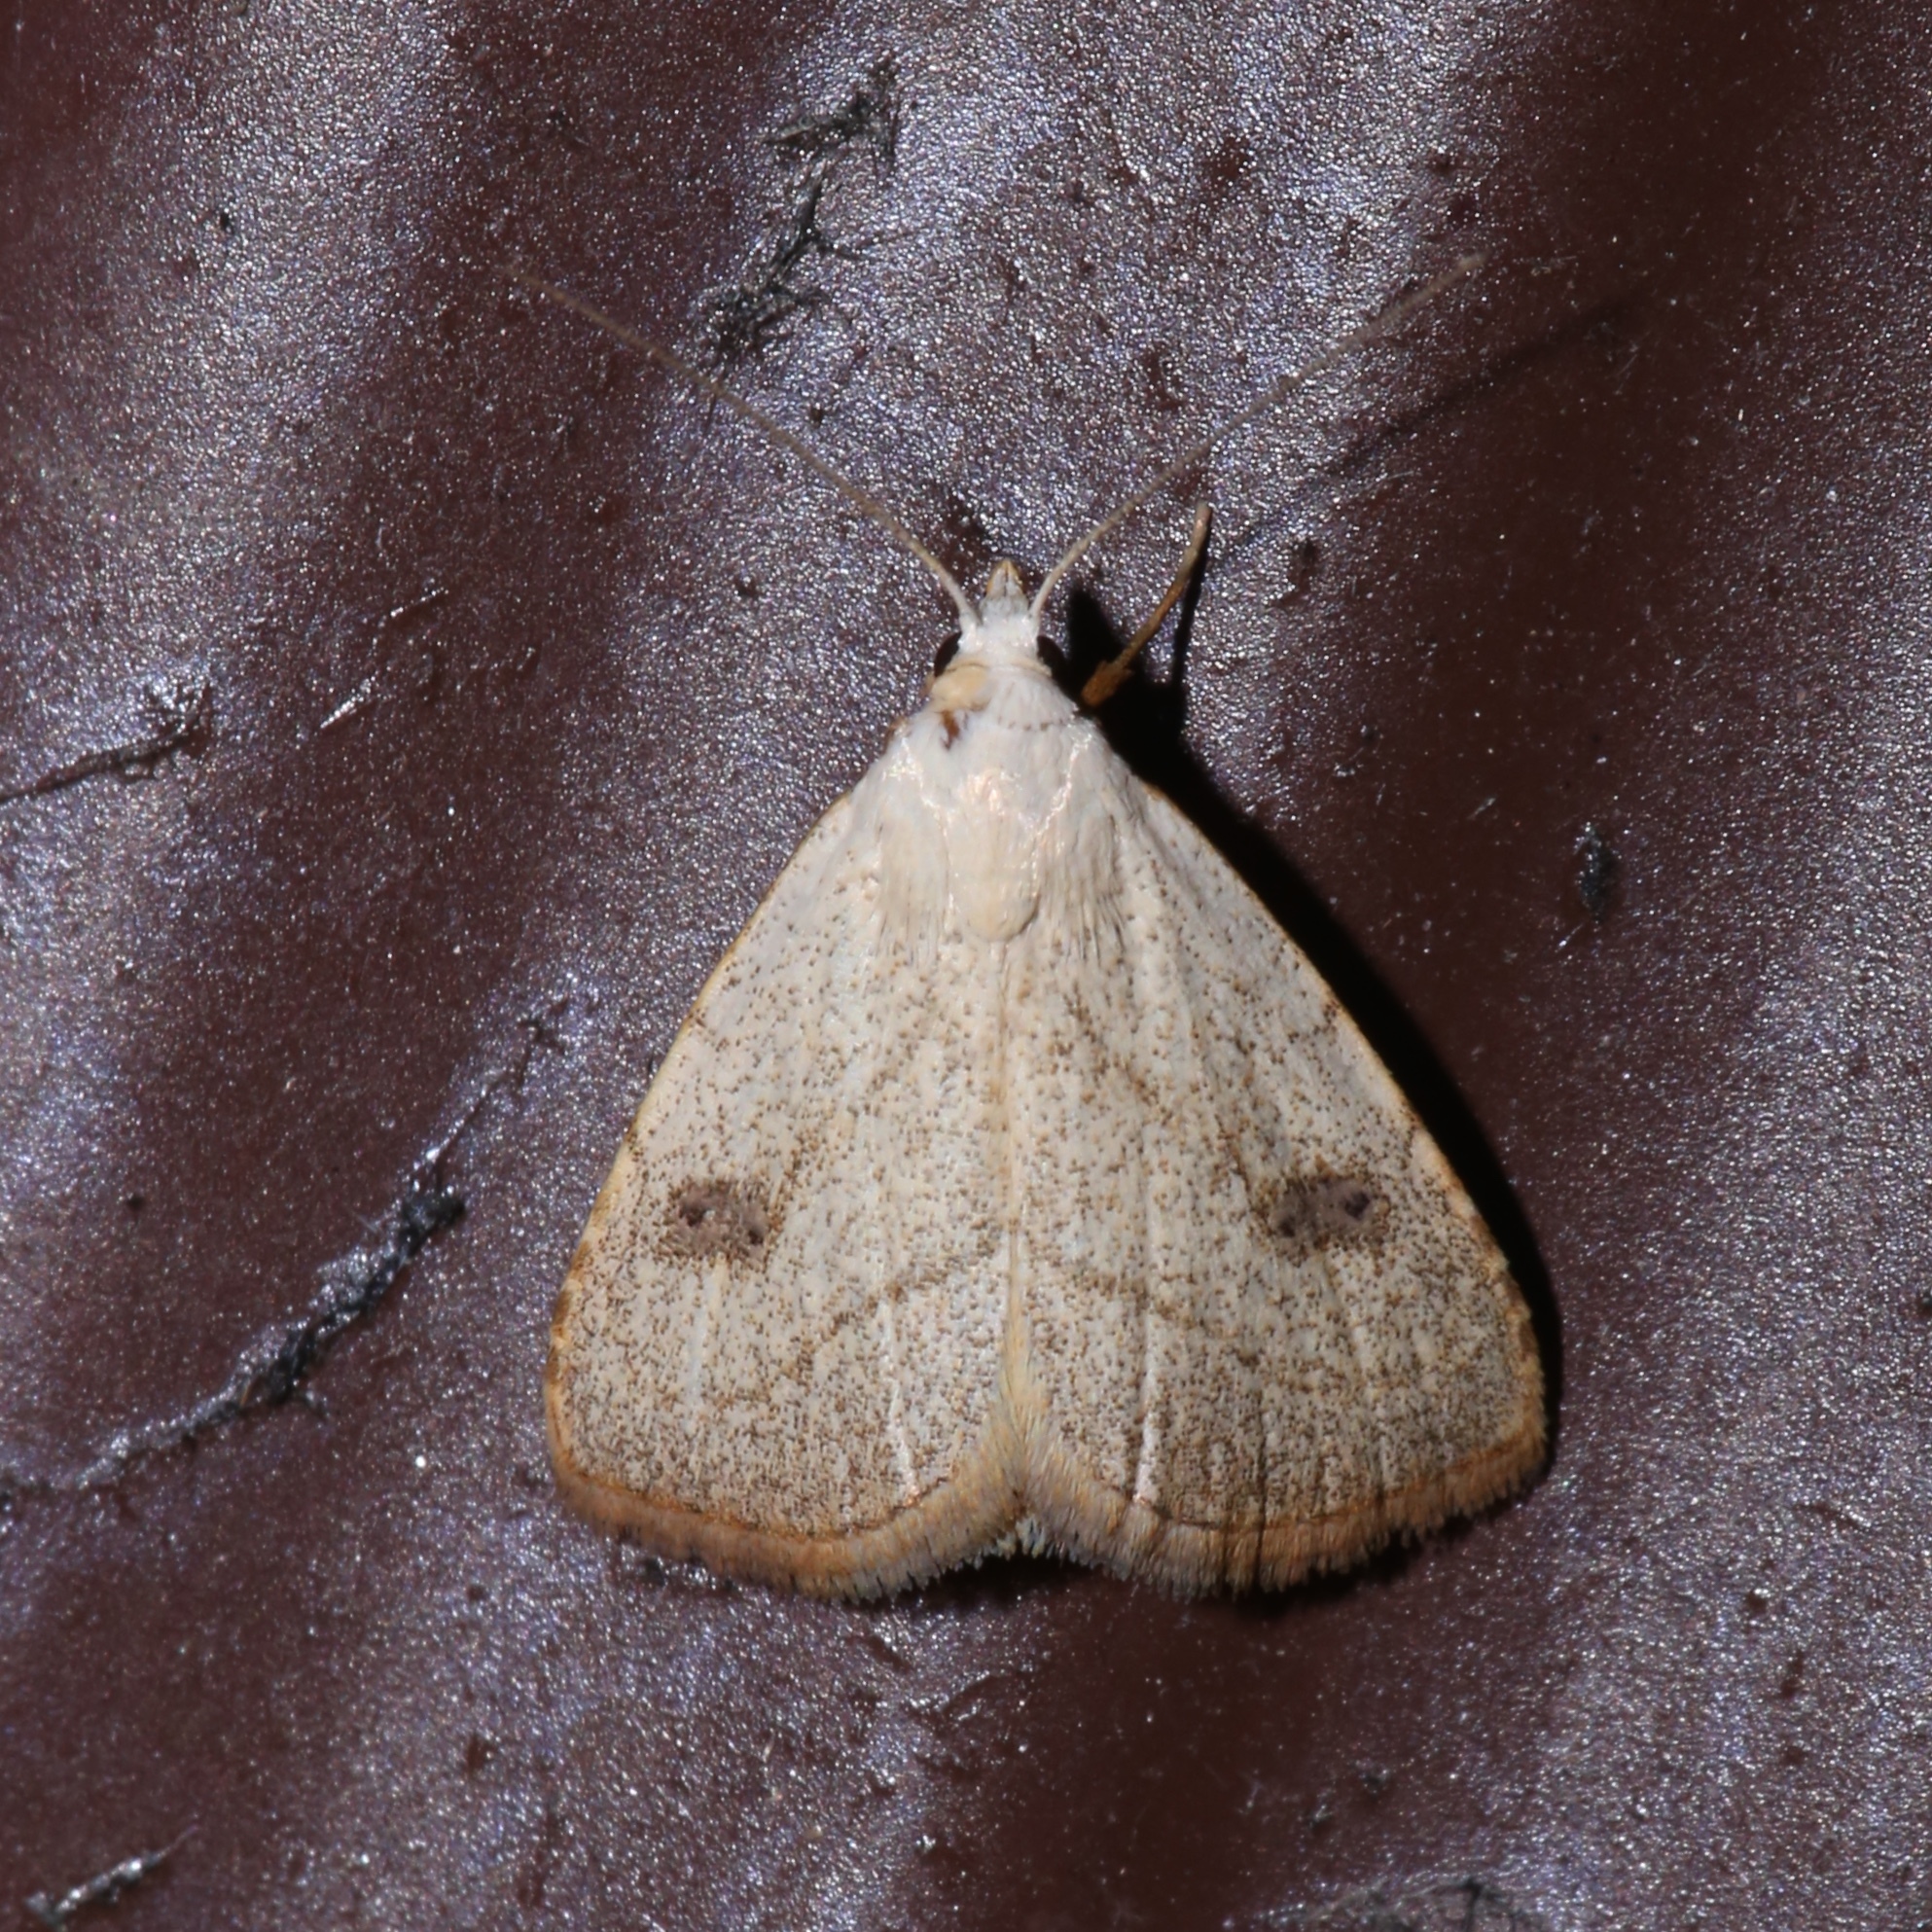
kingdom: Animalia
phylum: Arthropoda
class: Insecta
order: Lepidoptera
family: Erebidae
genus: Rivula
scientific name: Rivula propinqualis
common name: Spotted grass moth
